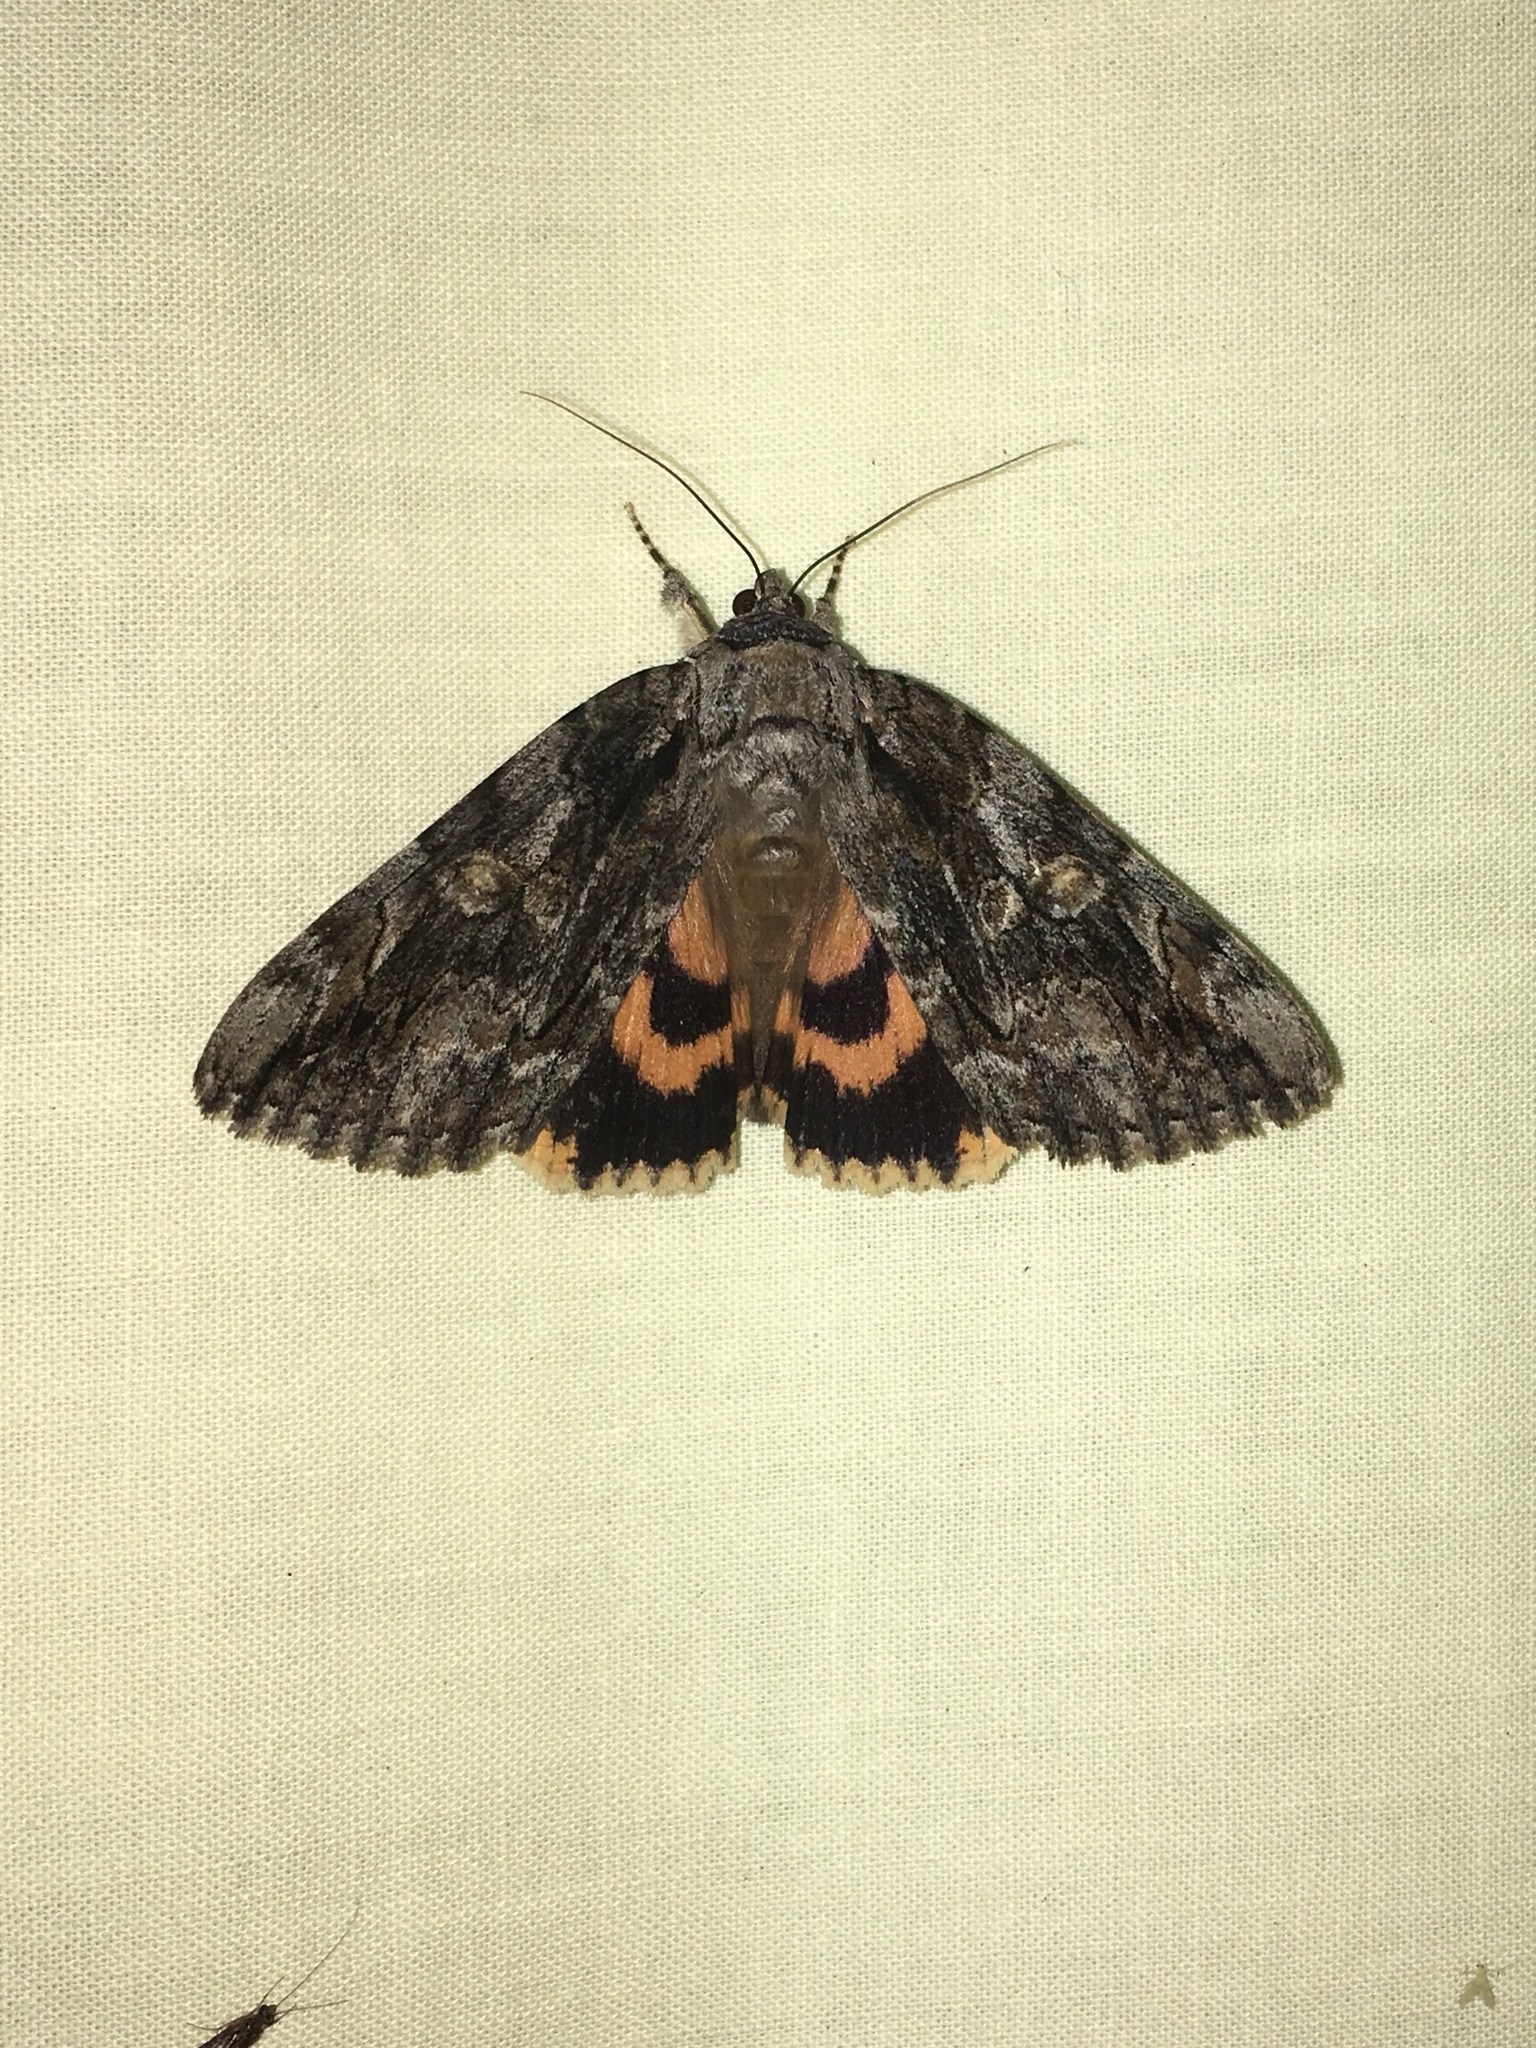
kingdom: Animalia
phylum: Arthropoda
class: Insecta
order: Lepidoptera
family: Erebidae
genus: Catocala
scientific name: Catocala neogama
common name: Bride underwing
